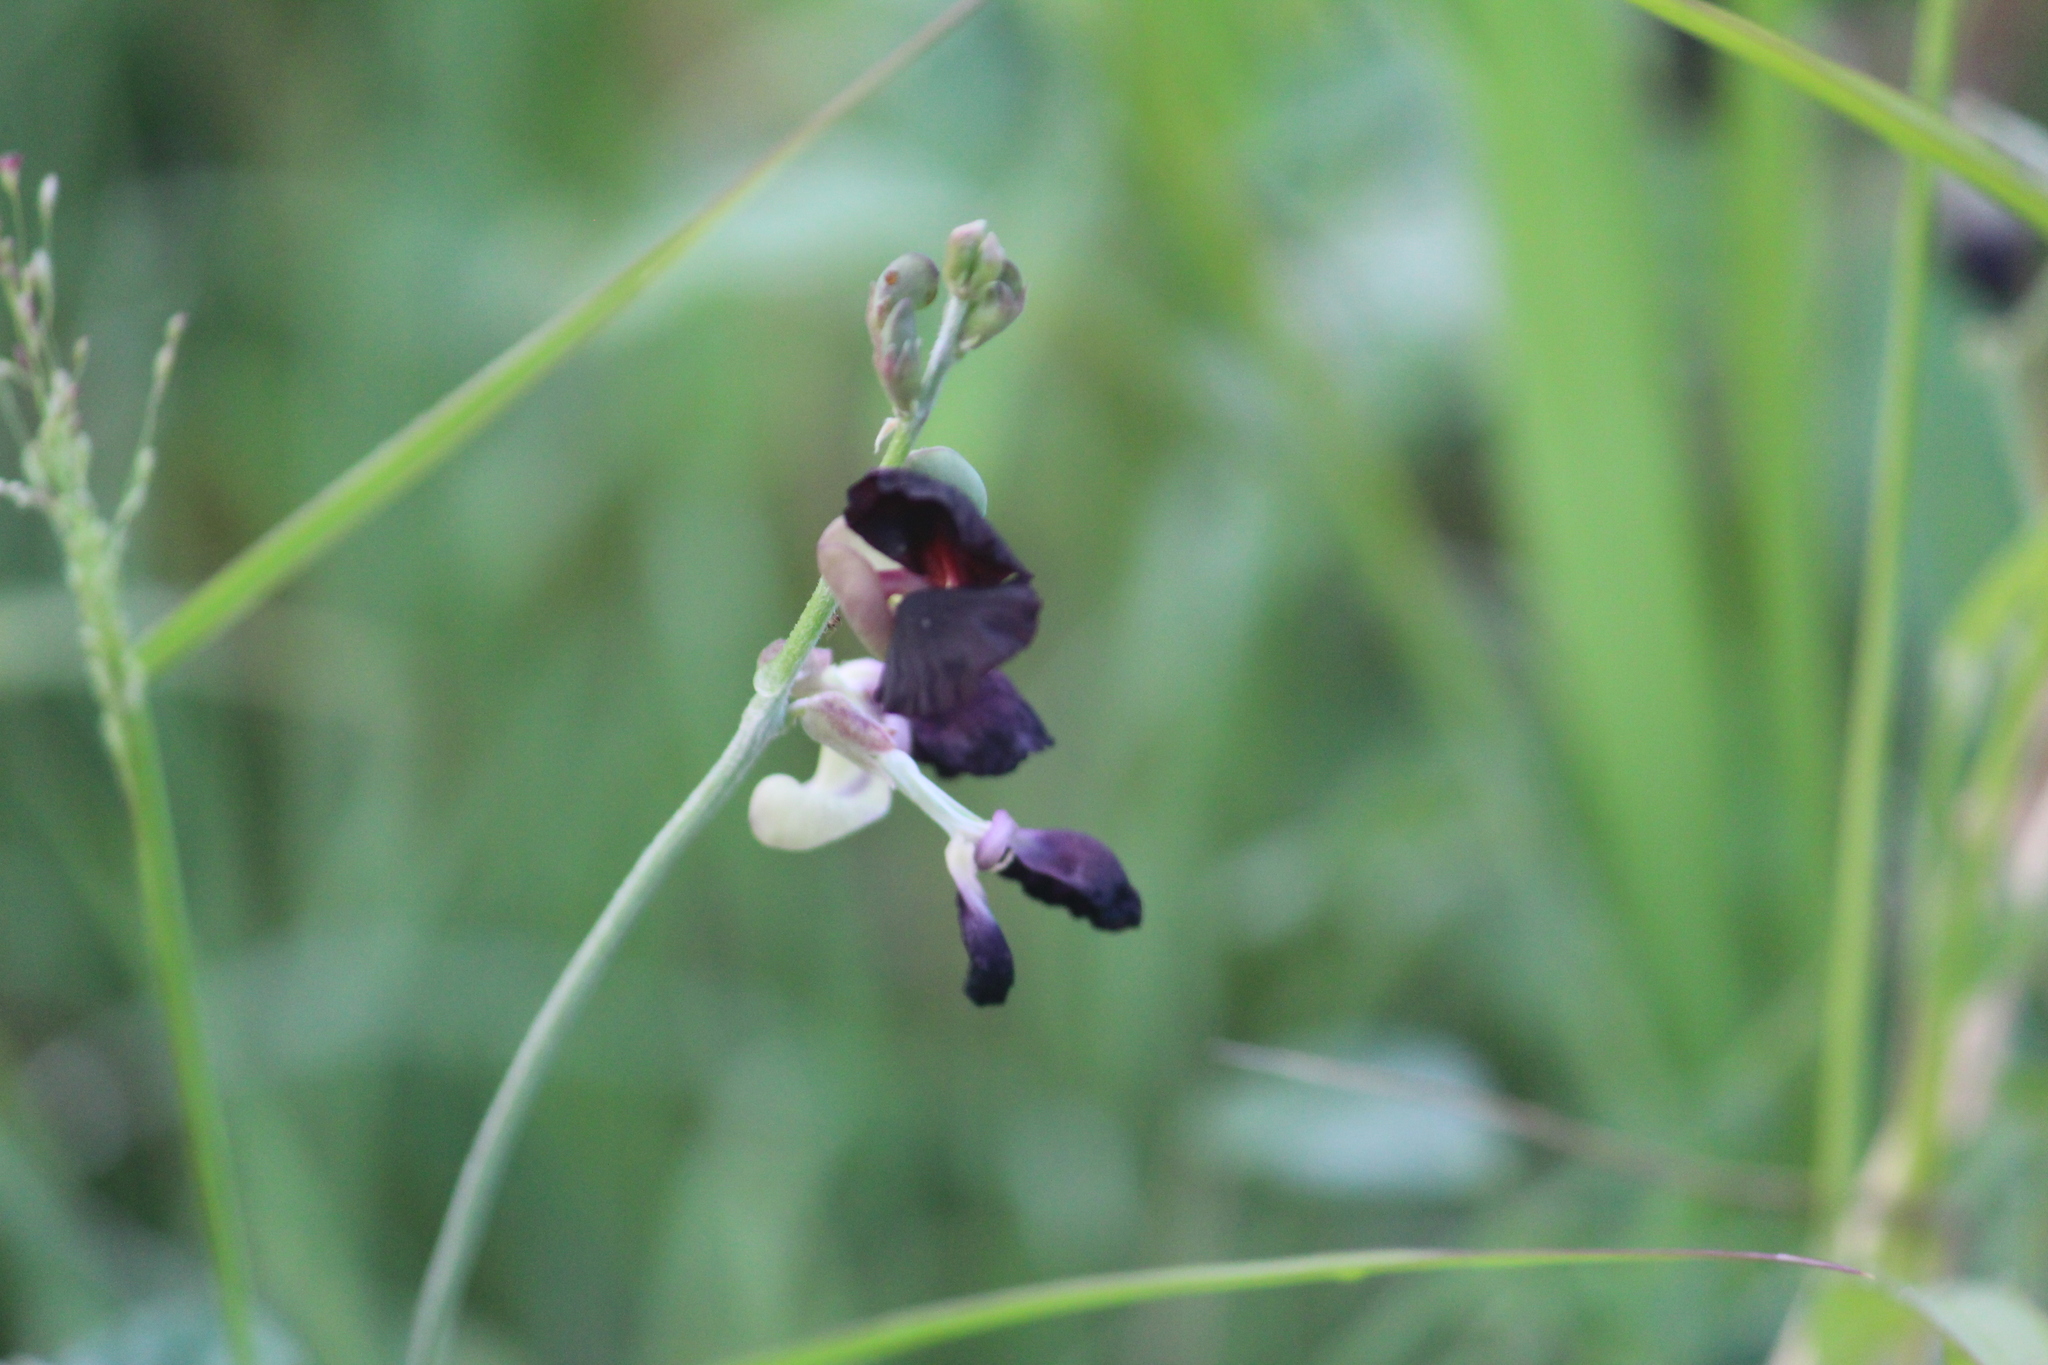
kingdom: Plantae
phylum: Tracheophyta
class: Magnoliopsida
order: Fabales
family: Fabaceae
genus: Macroptilium
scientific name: Macroptilium atropurpureum
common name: Purple bushbean
